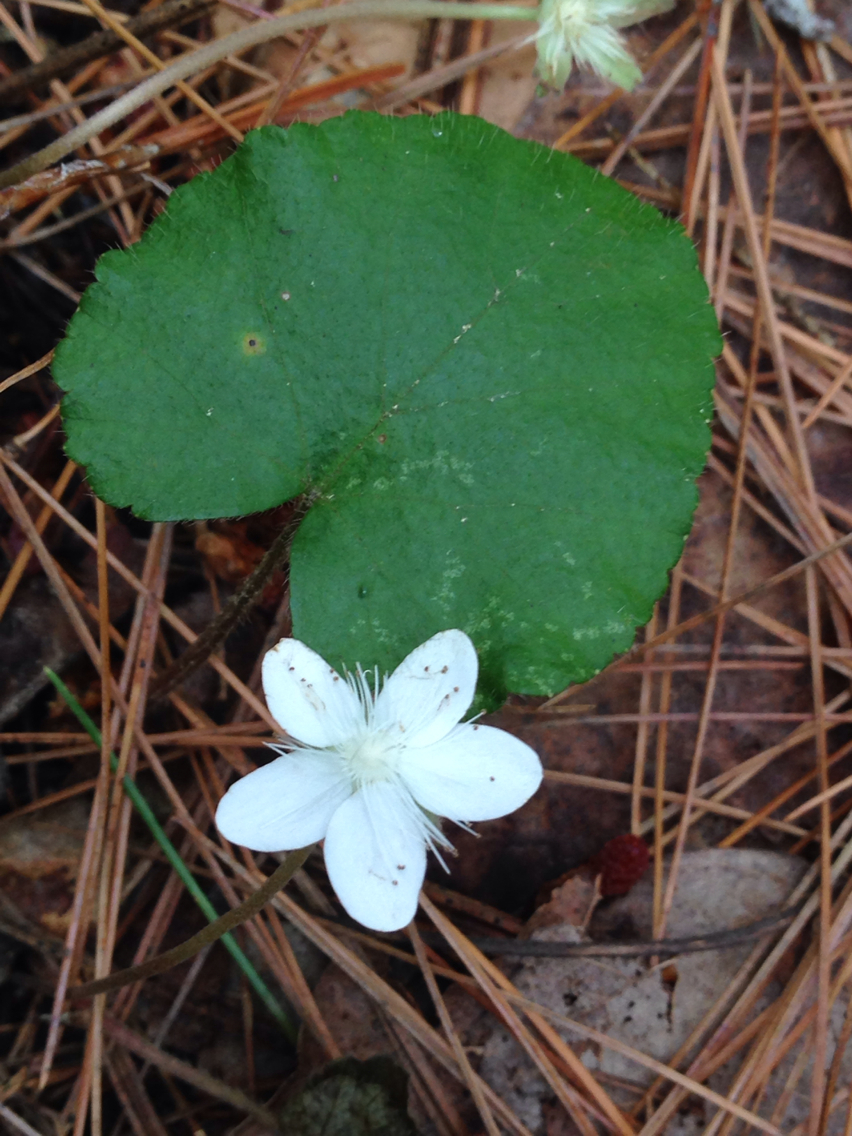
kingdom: Plantae
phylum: Tracheophyta
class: Magnoliopsida
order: Rosales
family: Rosaceae
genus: Dalibarda
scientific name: Dalibarda repens
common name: Dewdrop
